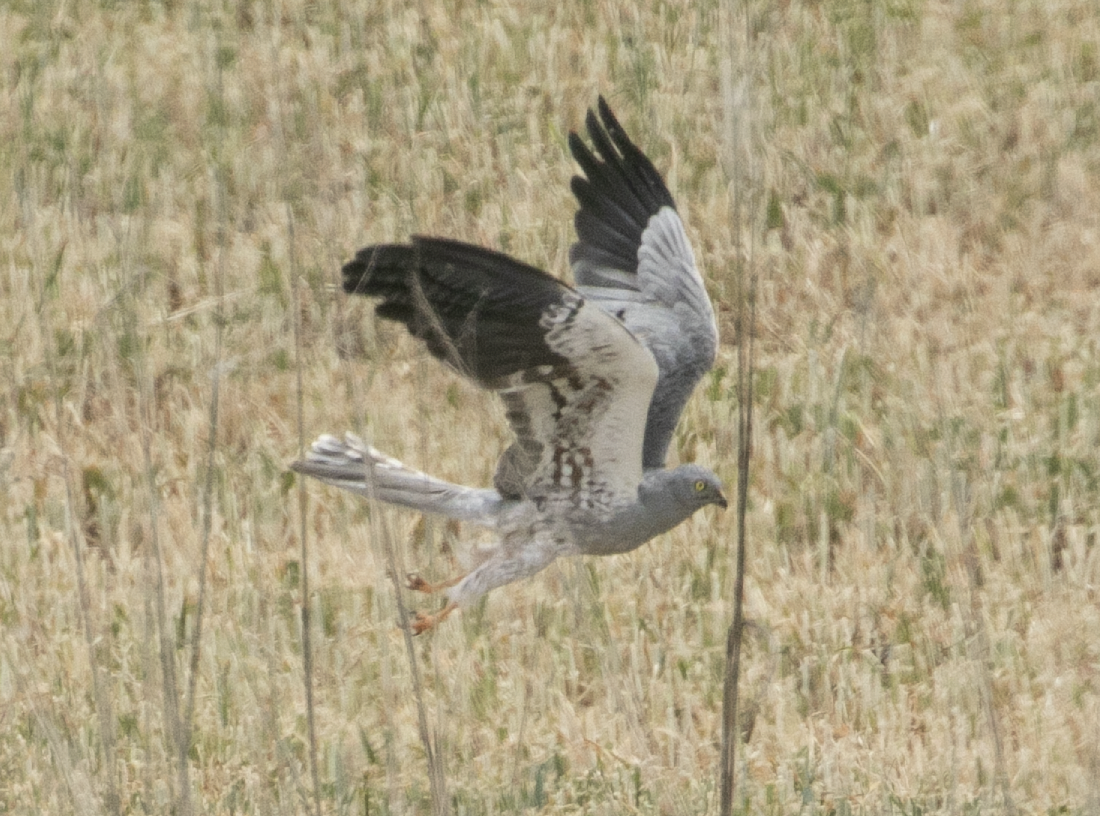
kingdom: Animalia
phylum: Chordata
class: Aves
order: Accipitriformes
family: Accipitridae
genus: Circus
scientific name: Circus pygargus
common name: Montagu's harrier
